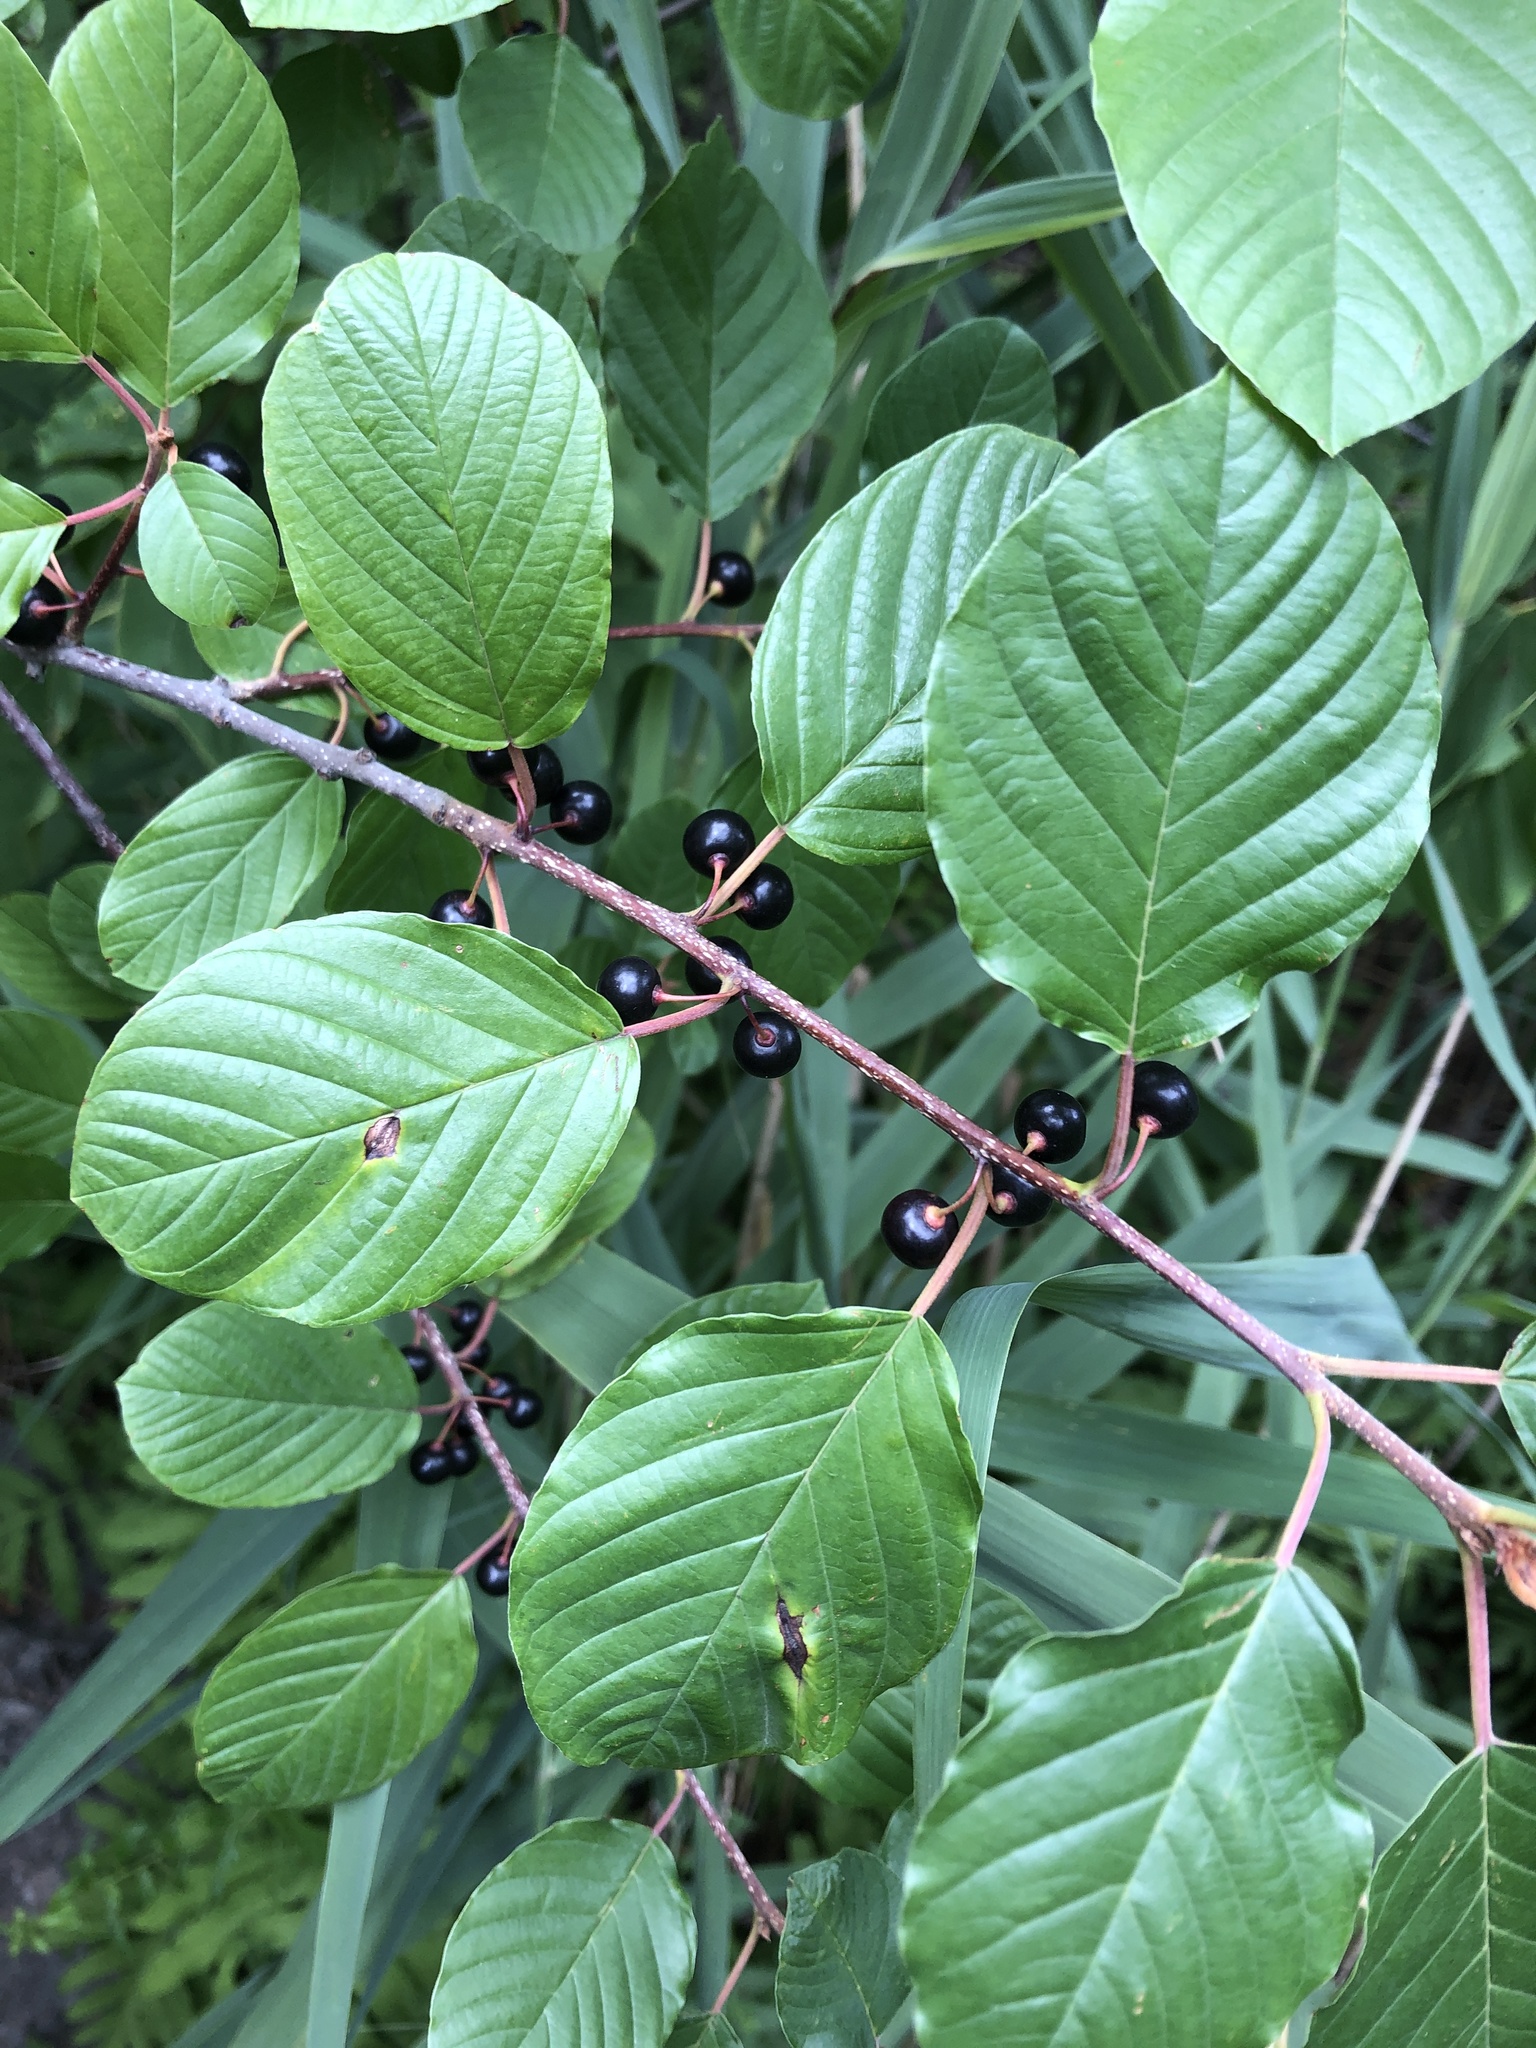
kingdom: Plantae
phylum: Tracheophyta
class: Magnoliopsida
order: Rosales
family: Rhamnaceae
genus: Frangula
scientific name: Frangula alnus
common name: Alder buckthorn
